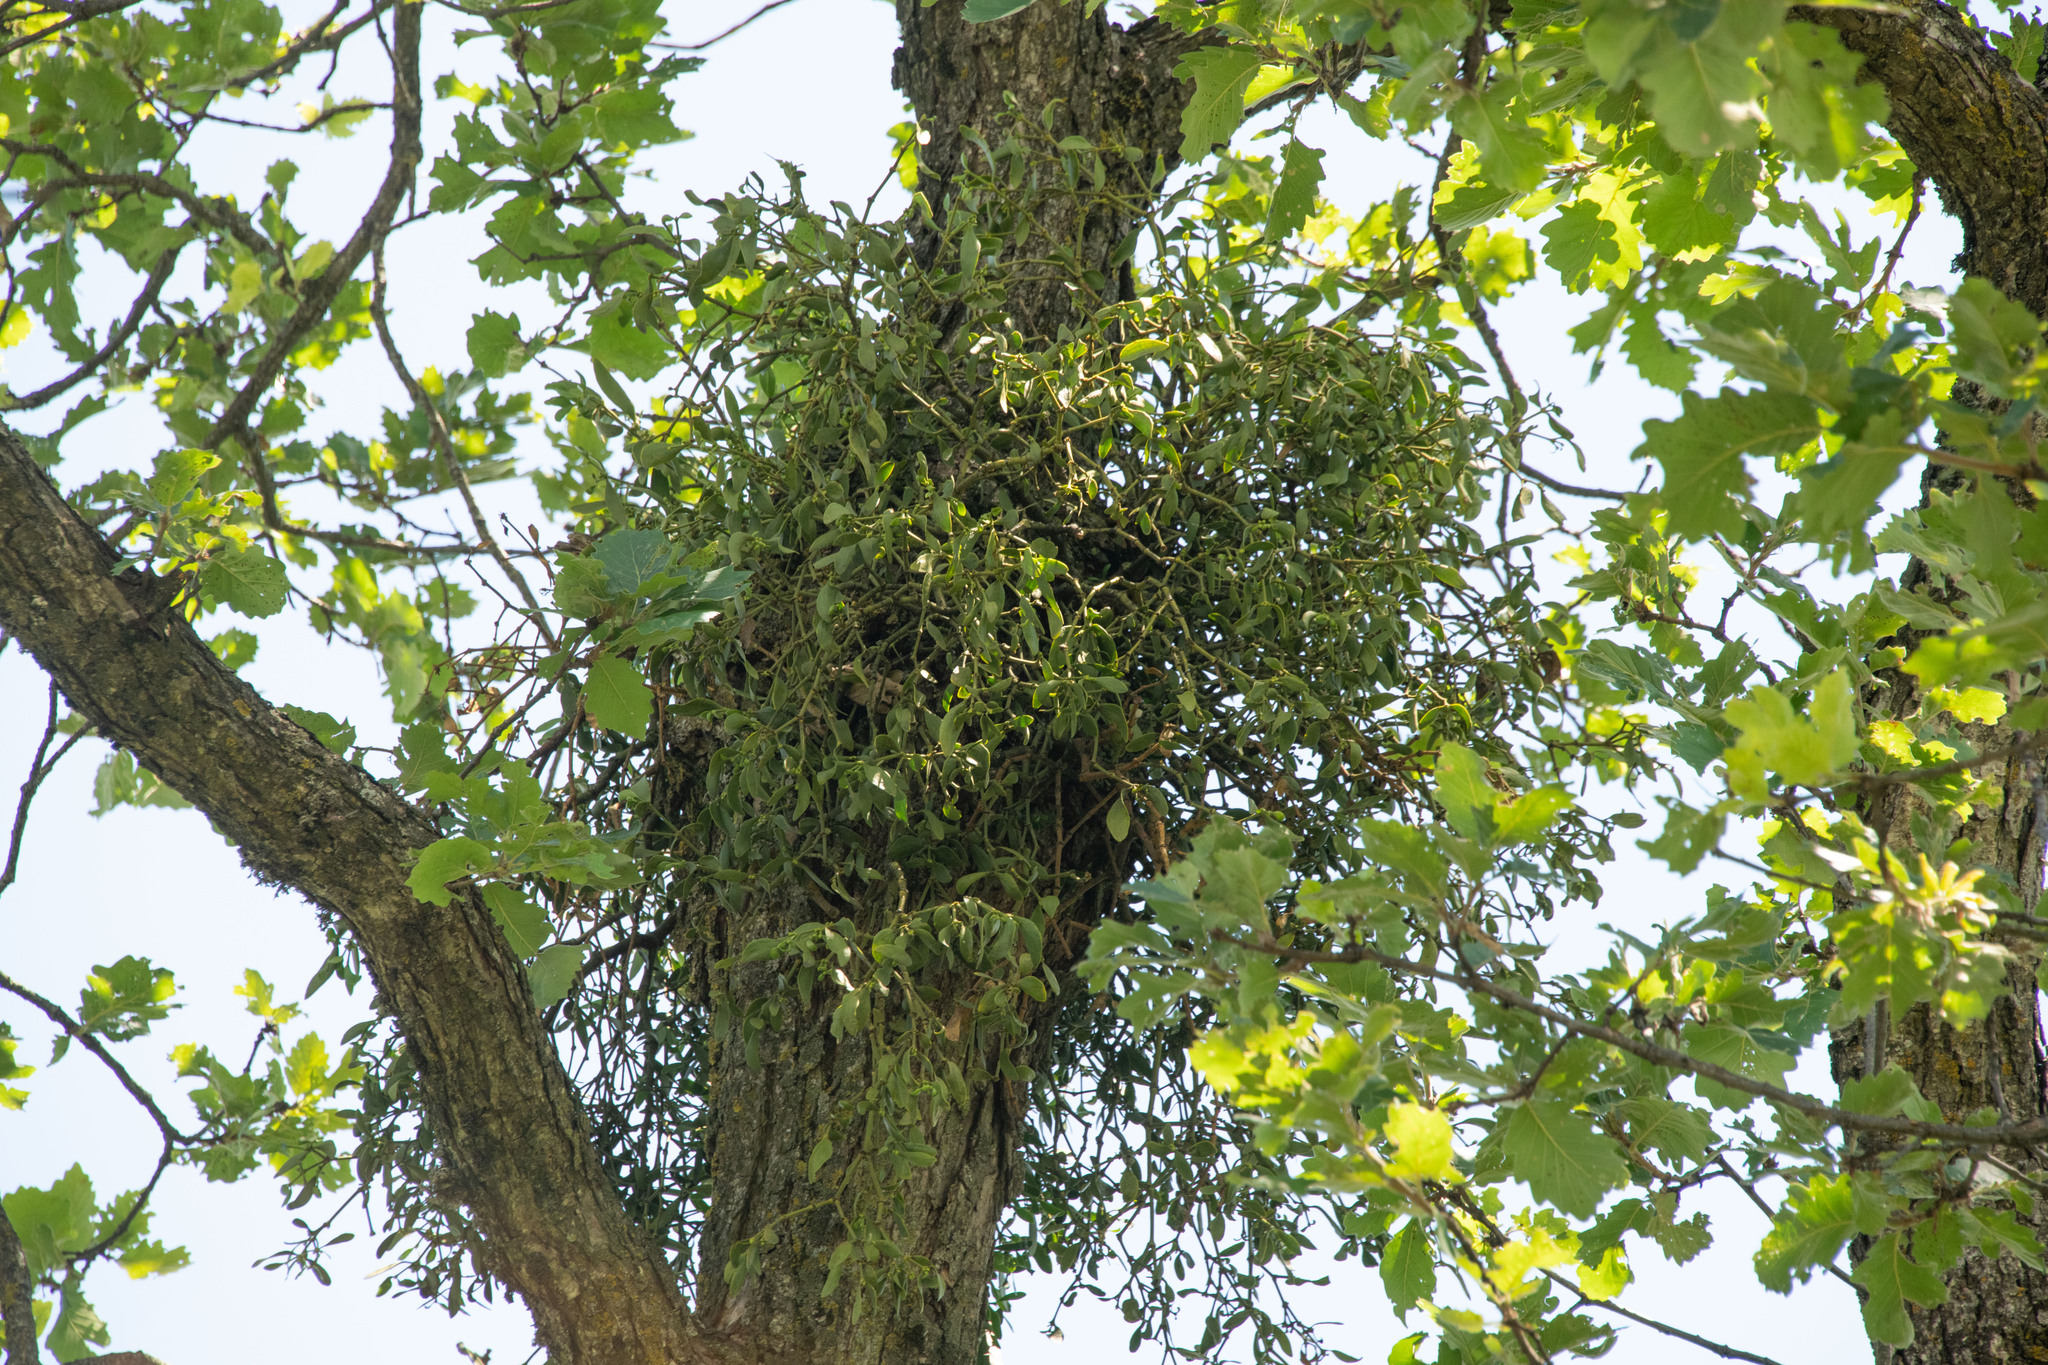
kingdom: Plantae
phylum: Tracheophyta
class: Magnoliopsida
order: Santalales
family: Viscaceae
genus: Viscum
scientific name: Viscum album
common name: Mistletoe
